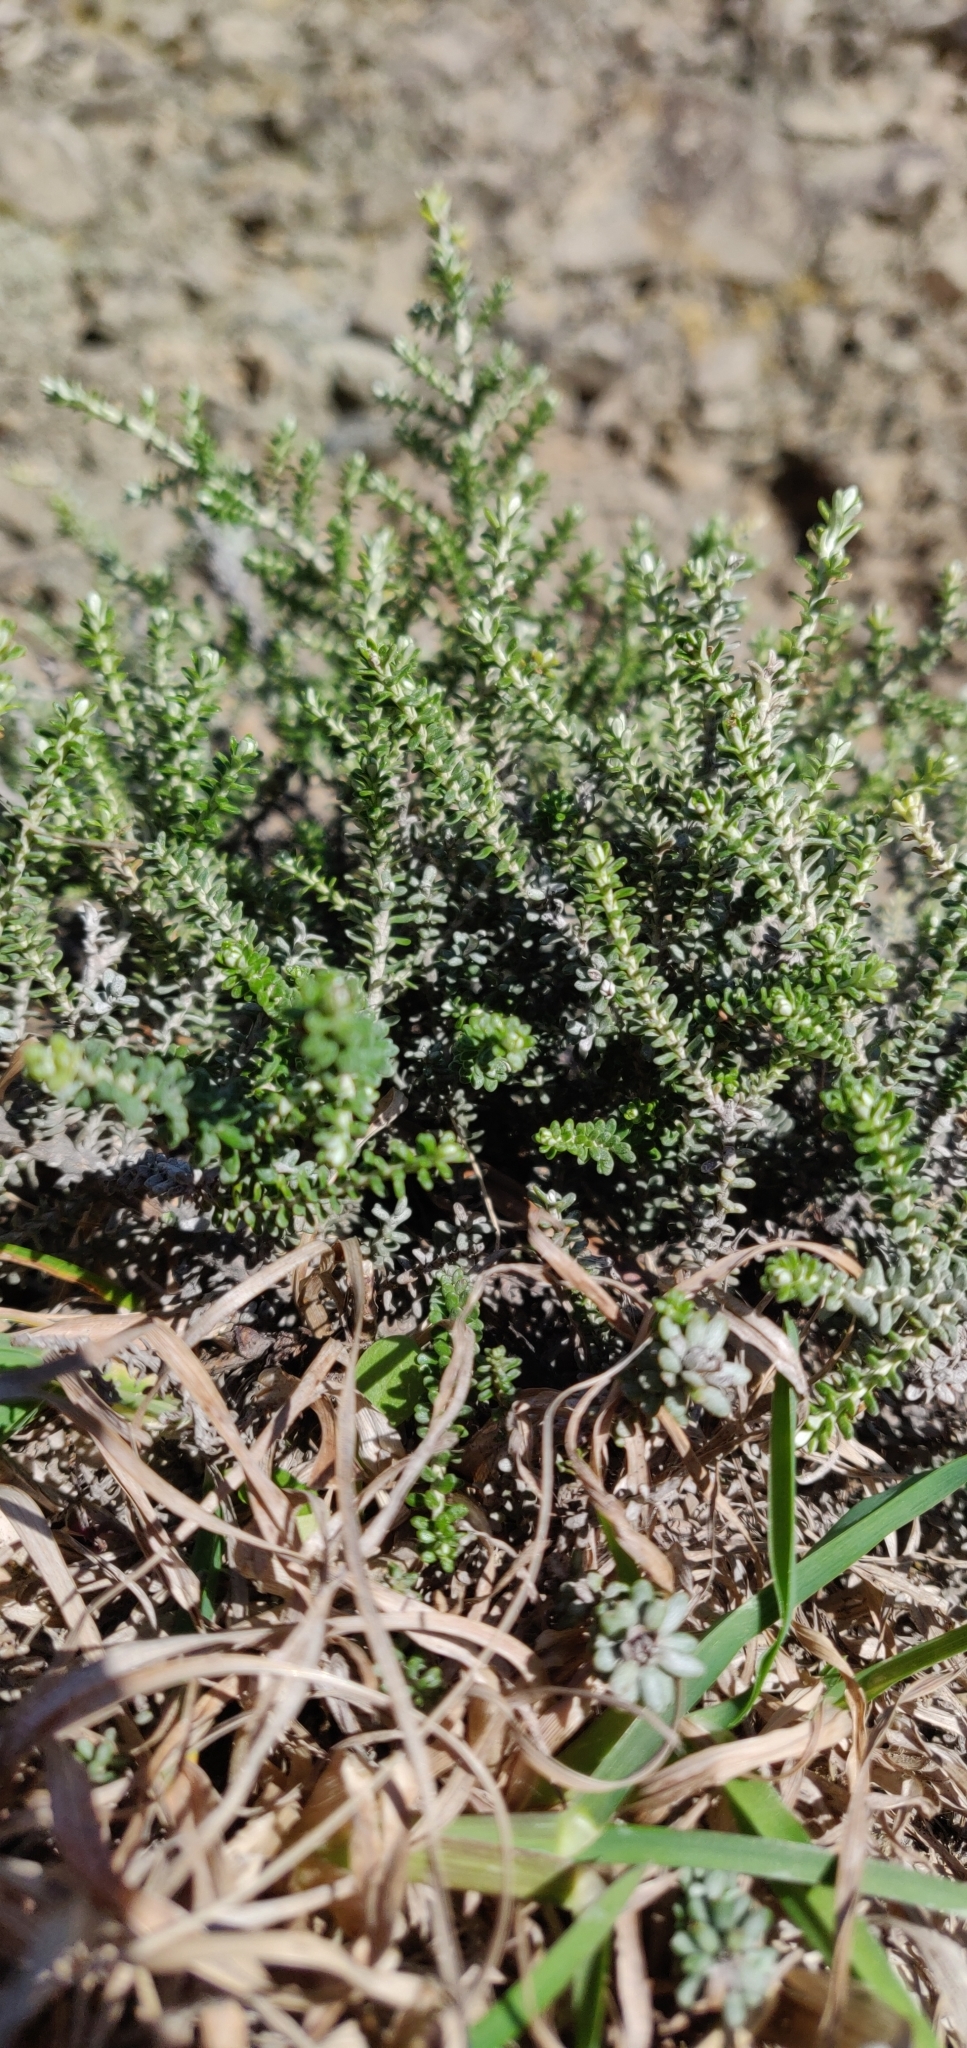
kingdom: Plantae
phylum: Tracheophyta
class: Magnoliopsida
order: Asterales
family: Asteraceae
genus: Ozothamnus
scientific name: Ozothamnus leptophyllus
